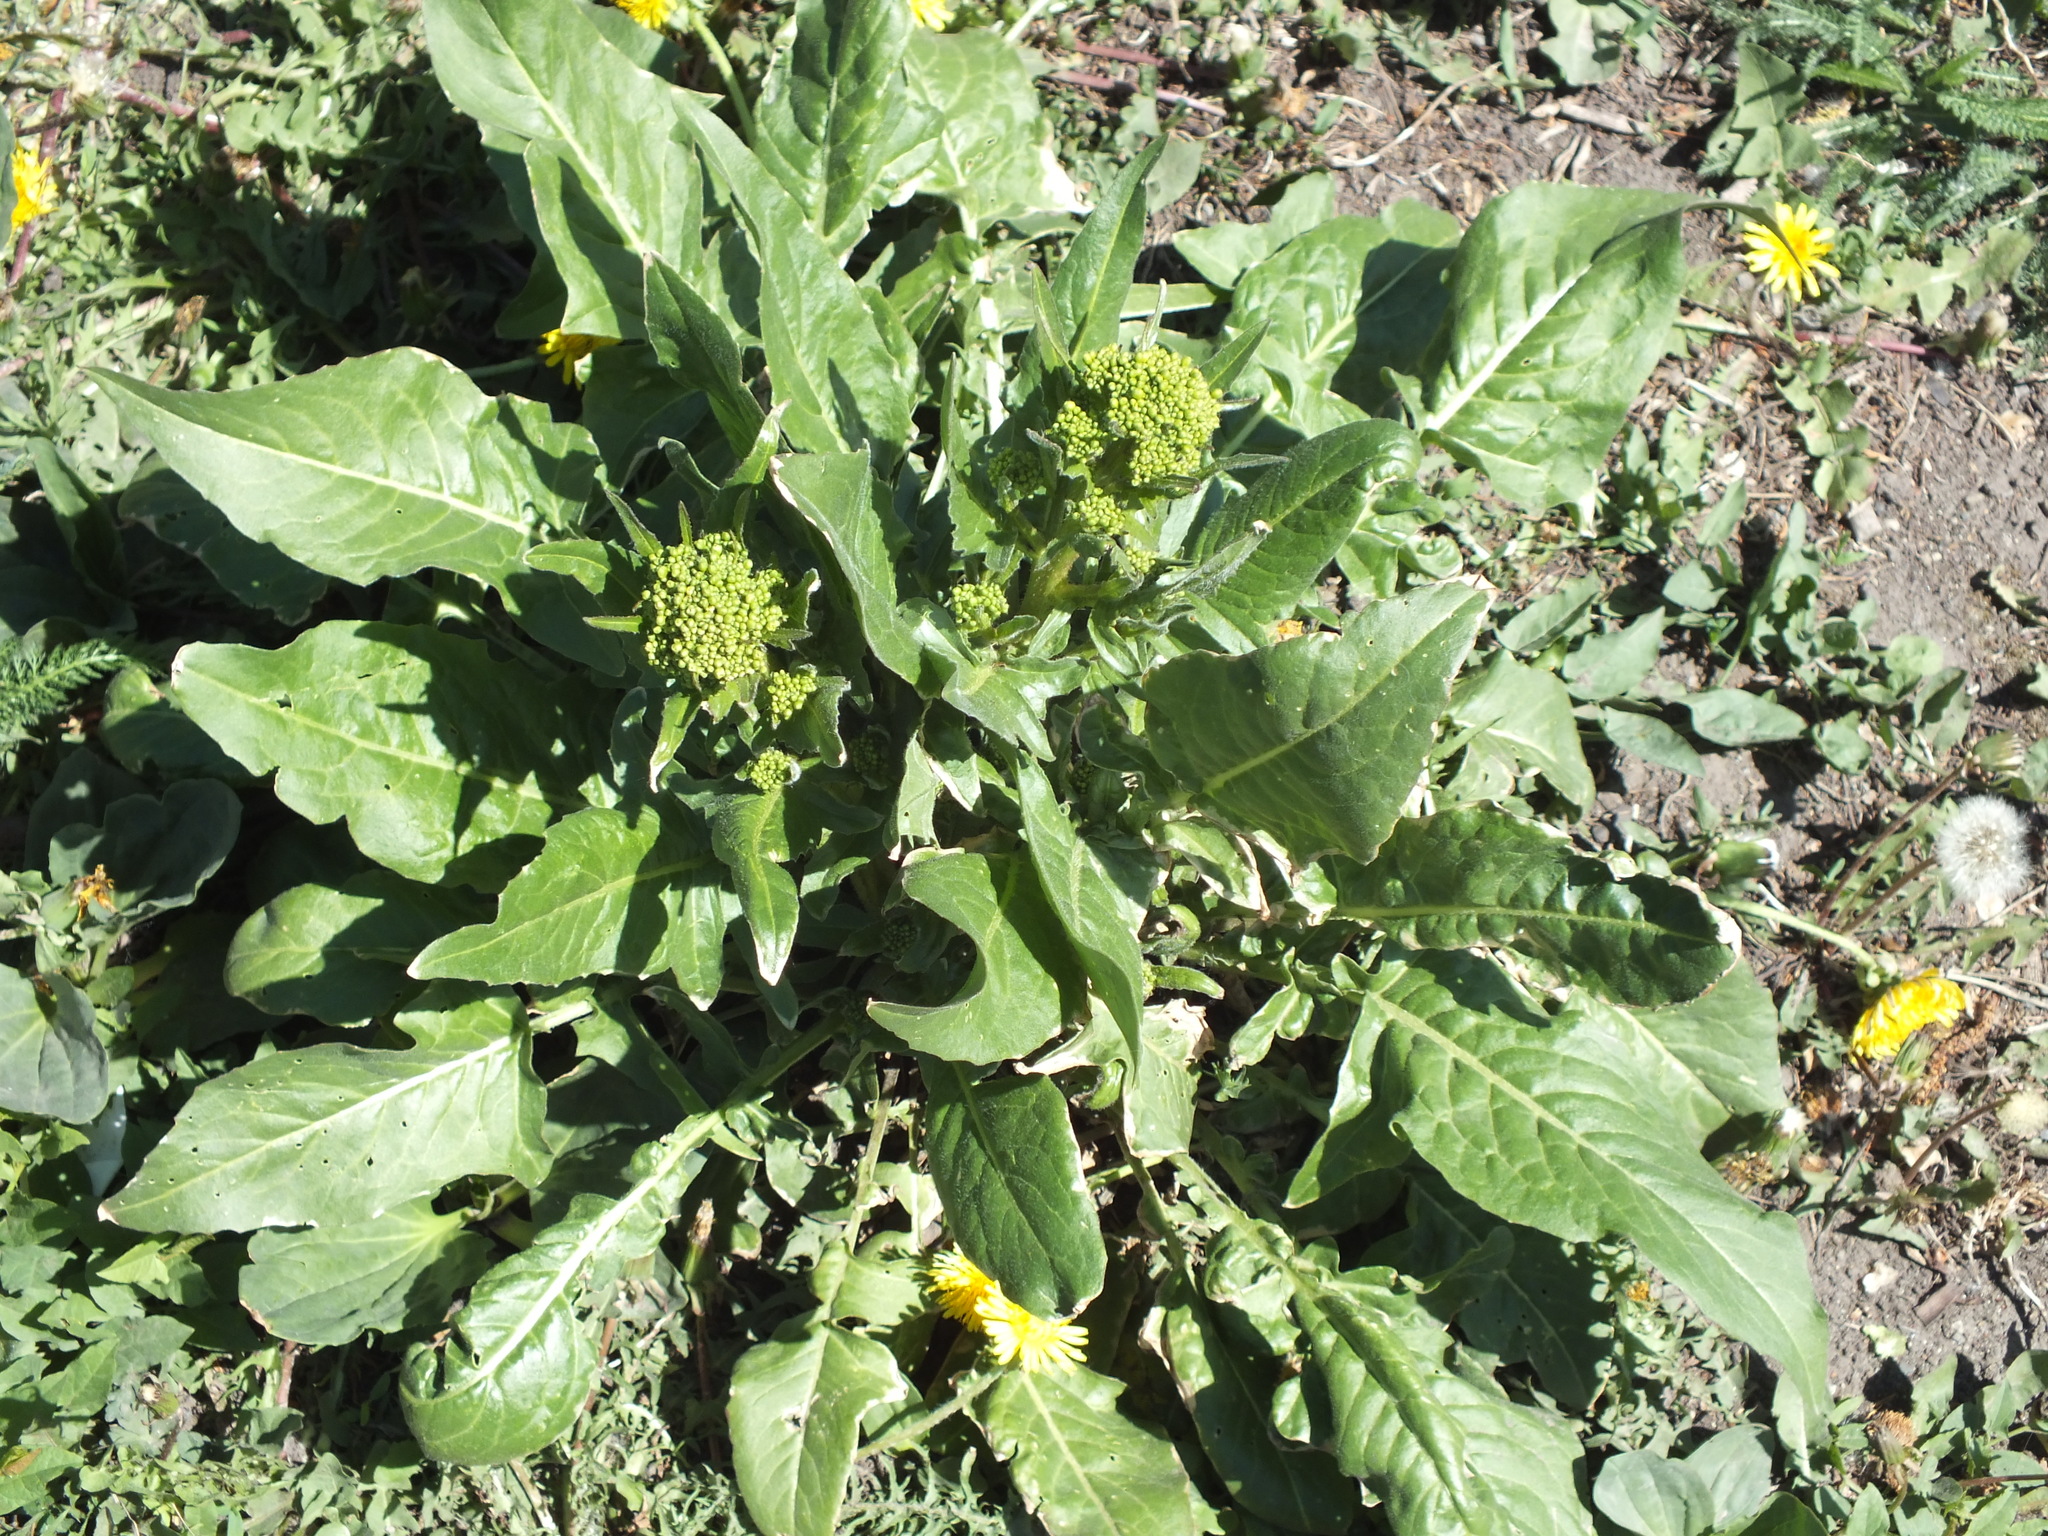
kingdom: Plantae
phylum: Tracheophyta
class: Magnoliopsida
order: Brassicales
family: Brassicaceae
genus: Bunias
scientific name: Bunias orientalis
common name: Warty-cabbage
